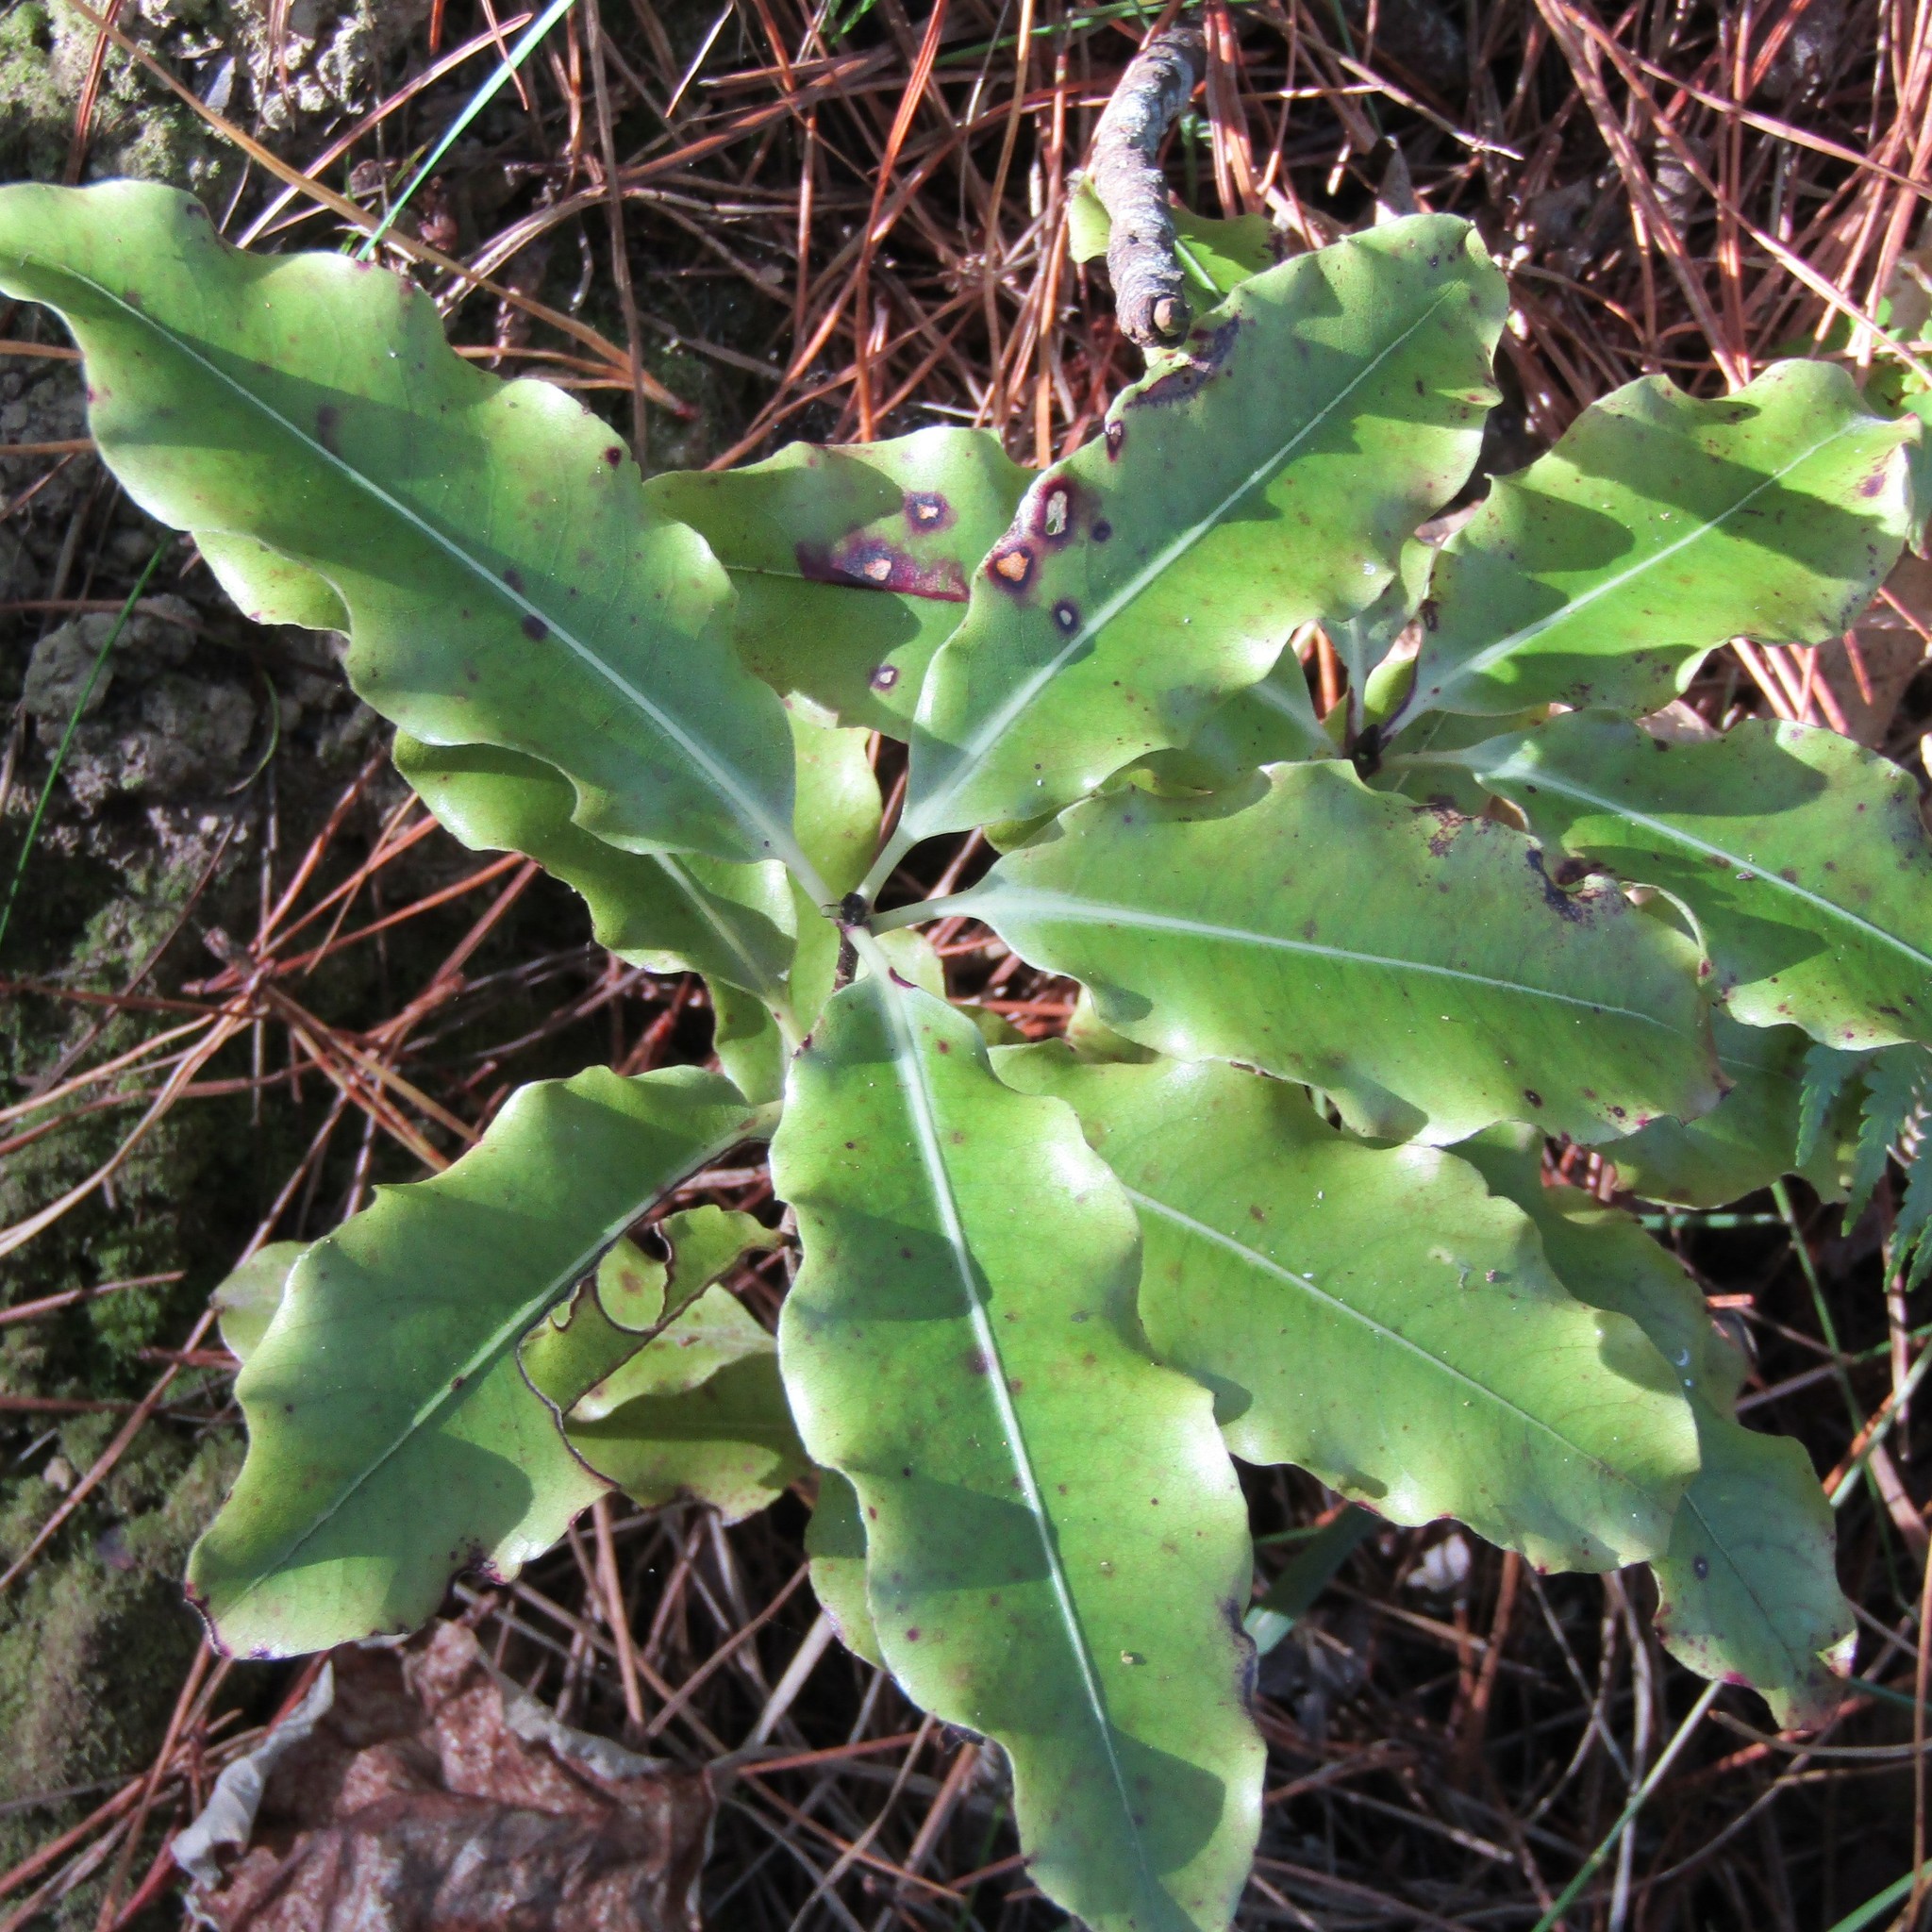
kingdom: Plantae
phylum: Tracheophyta
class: Magnoliopsida
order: Apiales
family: Pittosporaceae
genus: Pittosporum
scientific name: Pittosporum eugenioides
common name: Lemonwood
